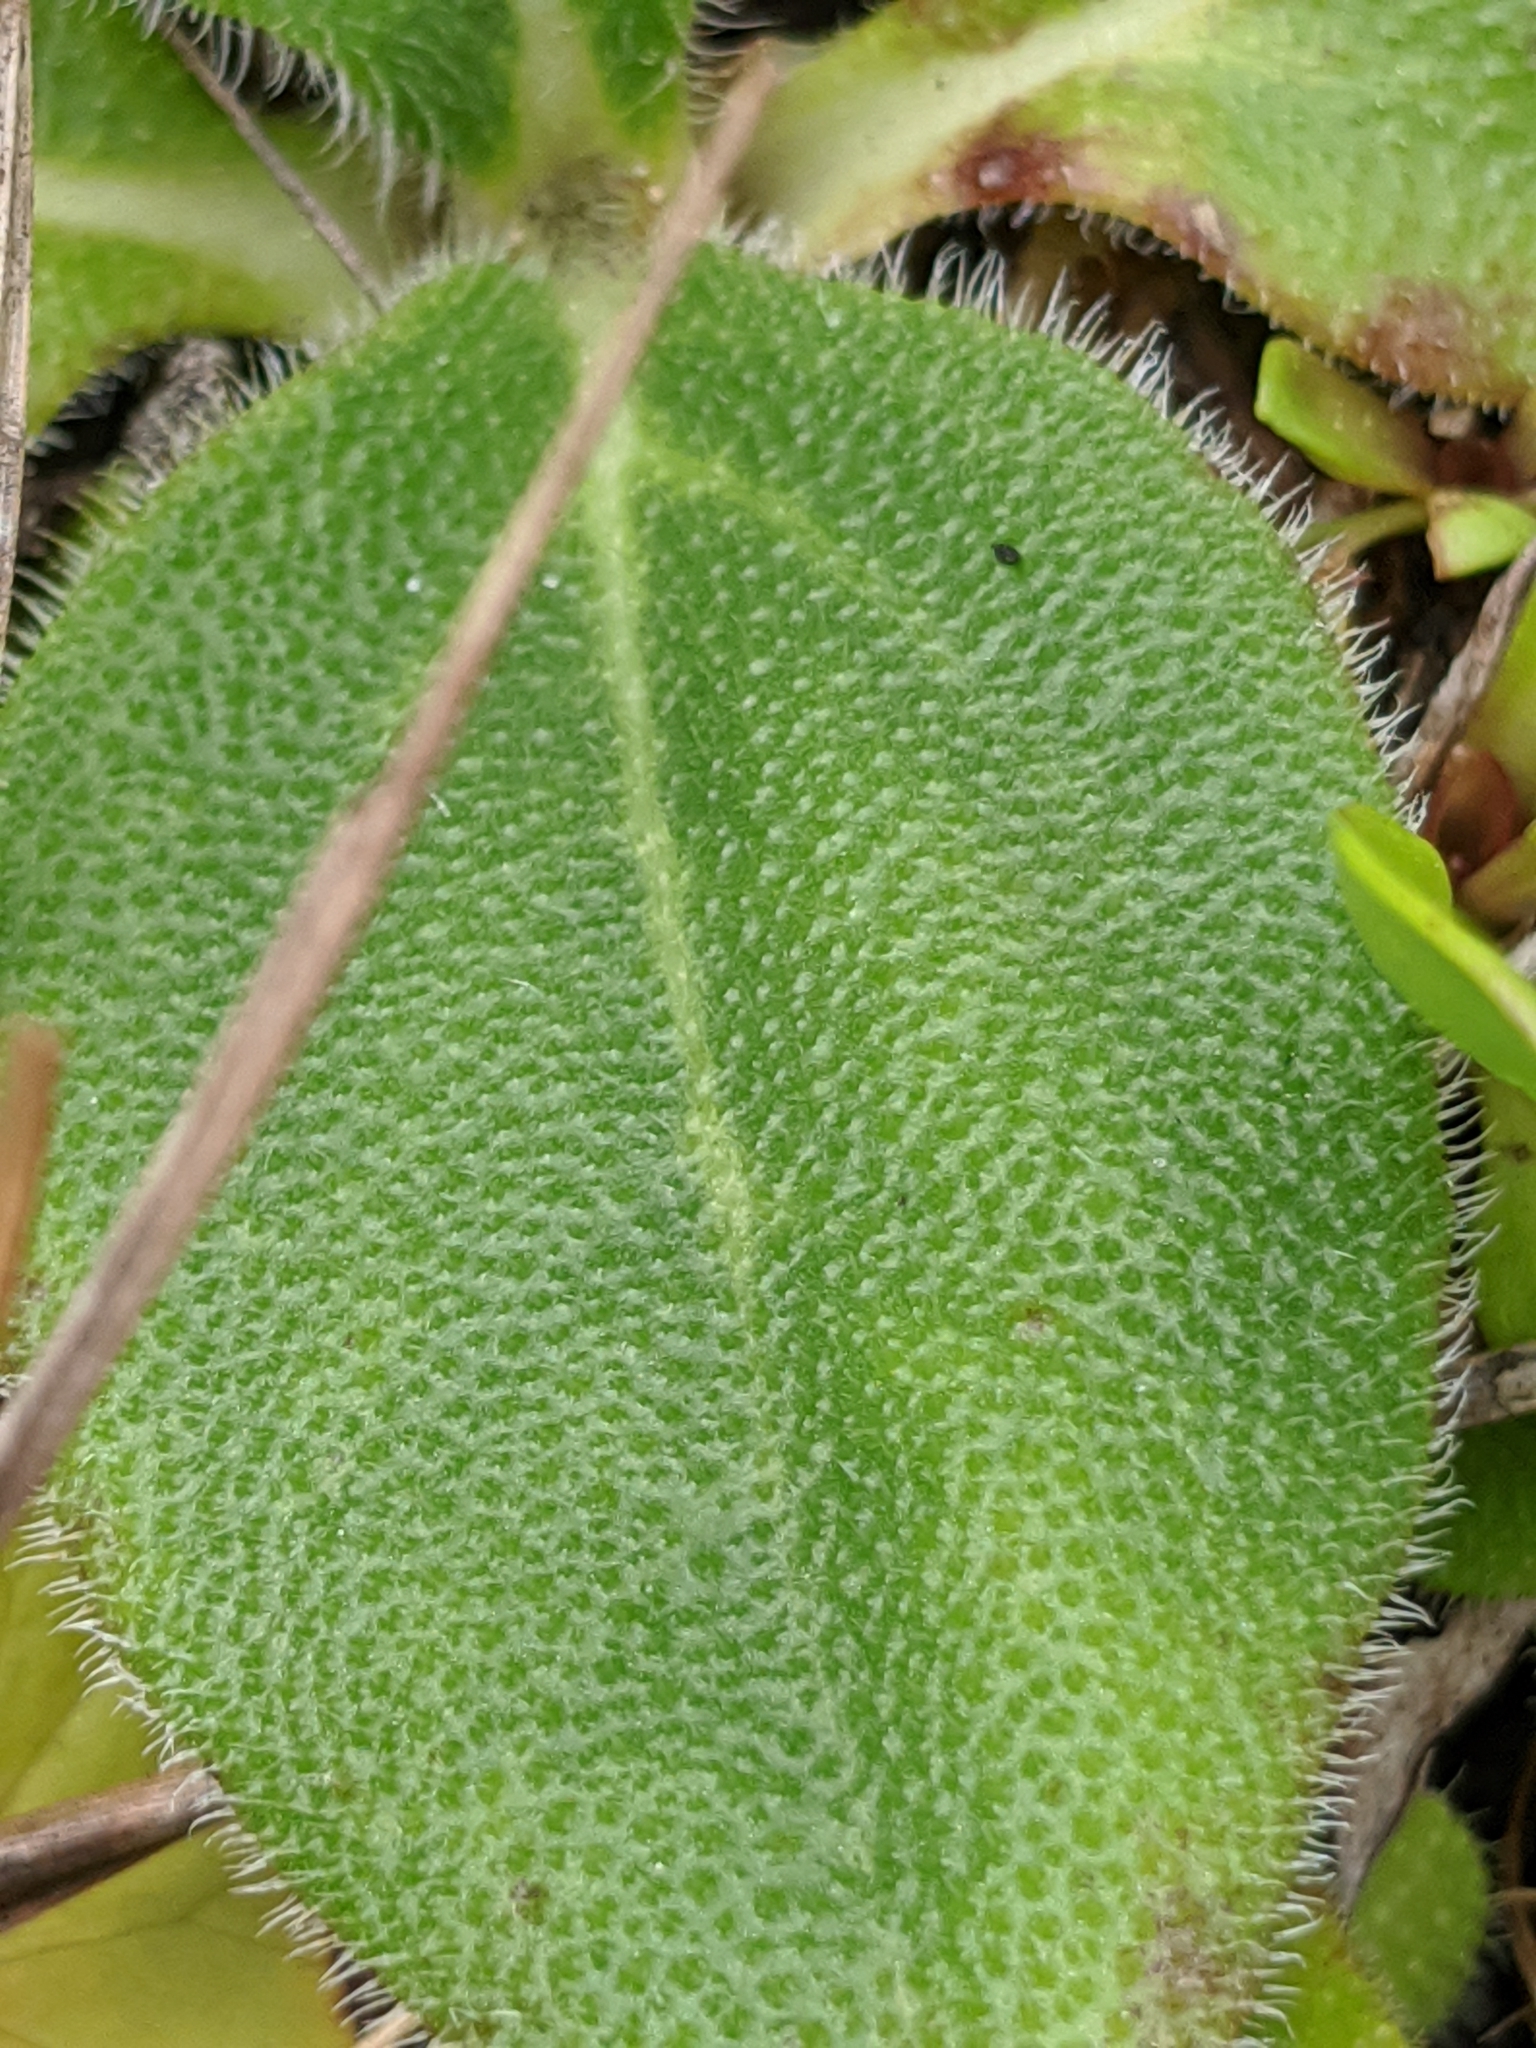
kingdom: Plantae
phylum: Tracheophyta
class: Magnoliopsida
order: Asterales
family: Asteraceae
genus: Helianthus
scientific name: Helianthus heterophyllus
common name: Wetland sunflower
